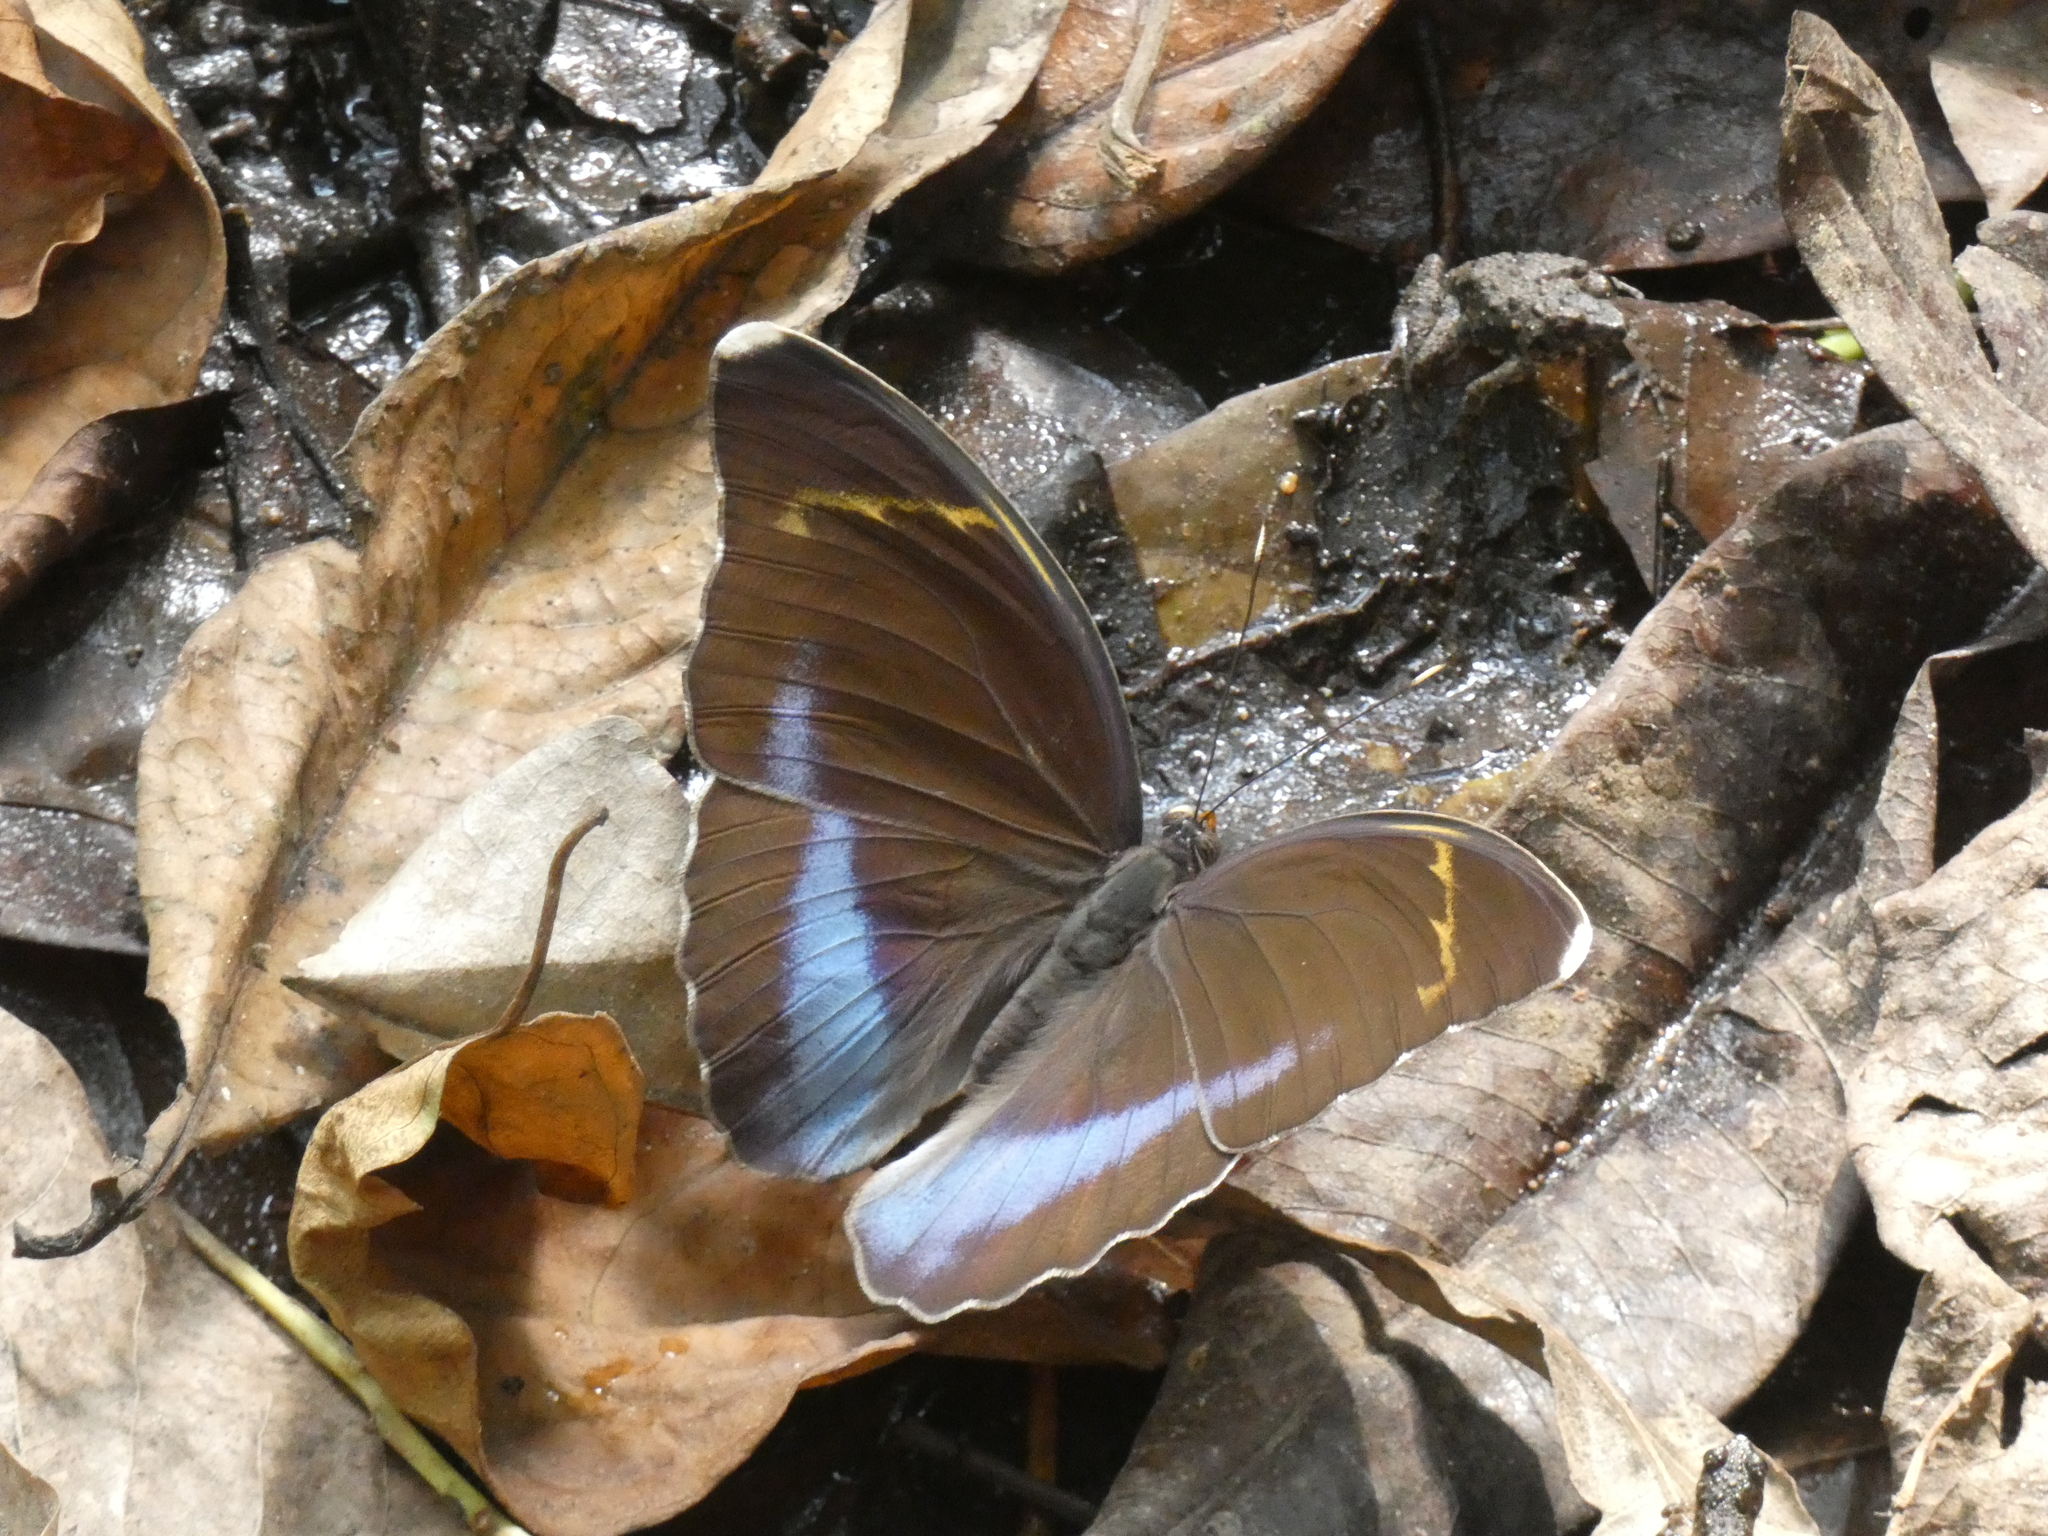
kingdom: Animalia
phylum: Arthropoda
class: Insecta
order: Lepidoptera
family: Nymphalidae
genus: Euphaedra
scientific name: Euphaedra harpalyce
